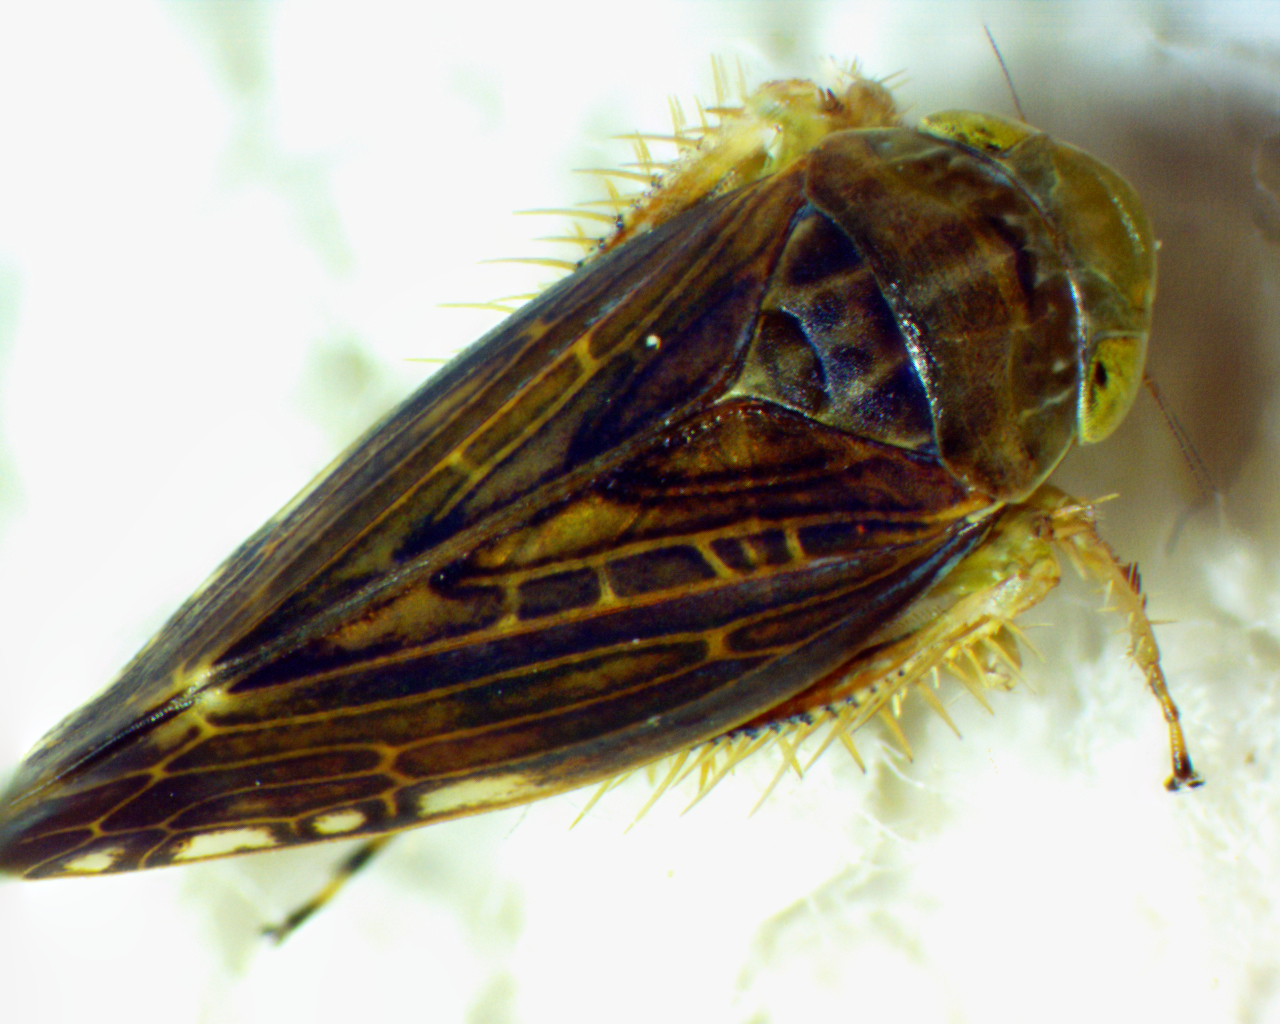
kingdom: Animalia
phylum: Arthropoda
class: Insecta
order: Hemiptera
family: Cicadellidae
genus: Acinopterus
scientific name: Acinopterus acuminatus
